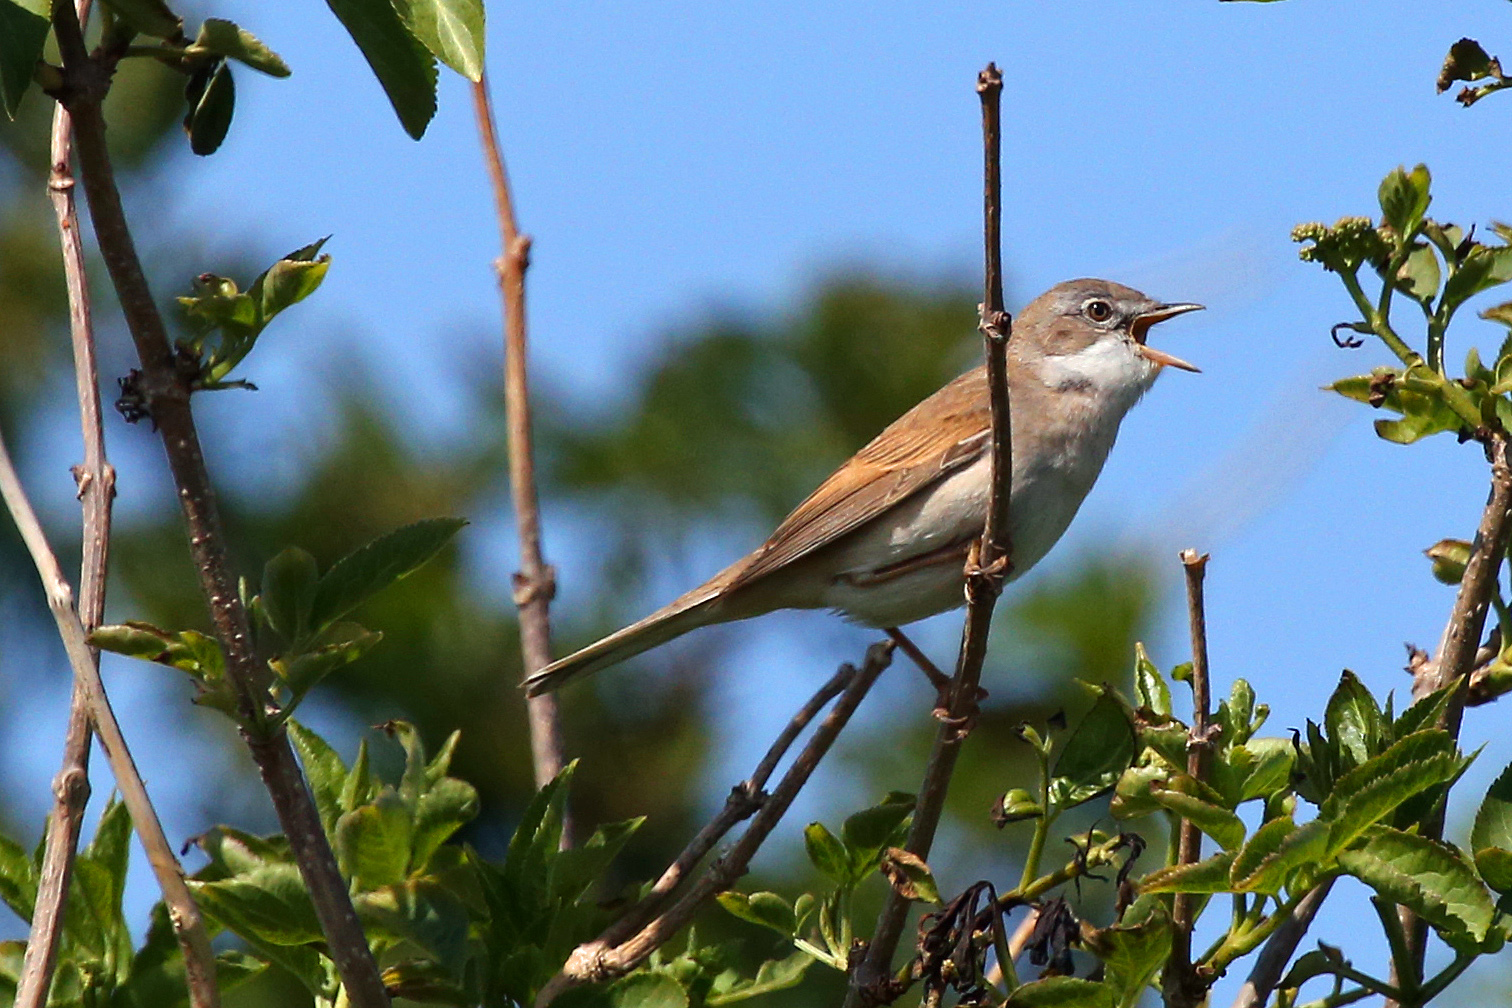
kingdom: Animalia
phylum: Chordata
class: Aves
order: Passeriformes
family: Sylviidae
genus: Sylvia
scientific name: Sylvia communis
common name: Common whitethroat
